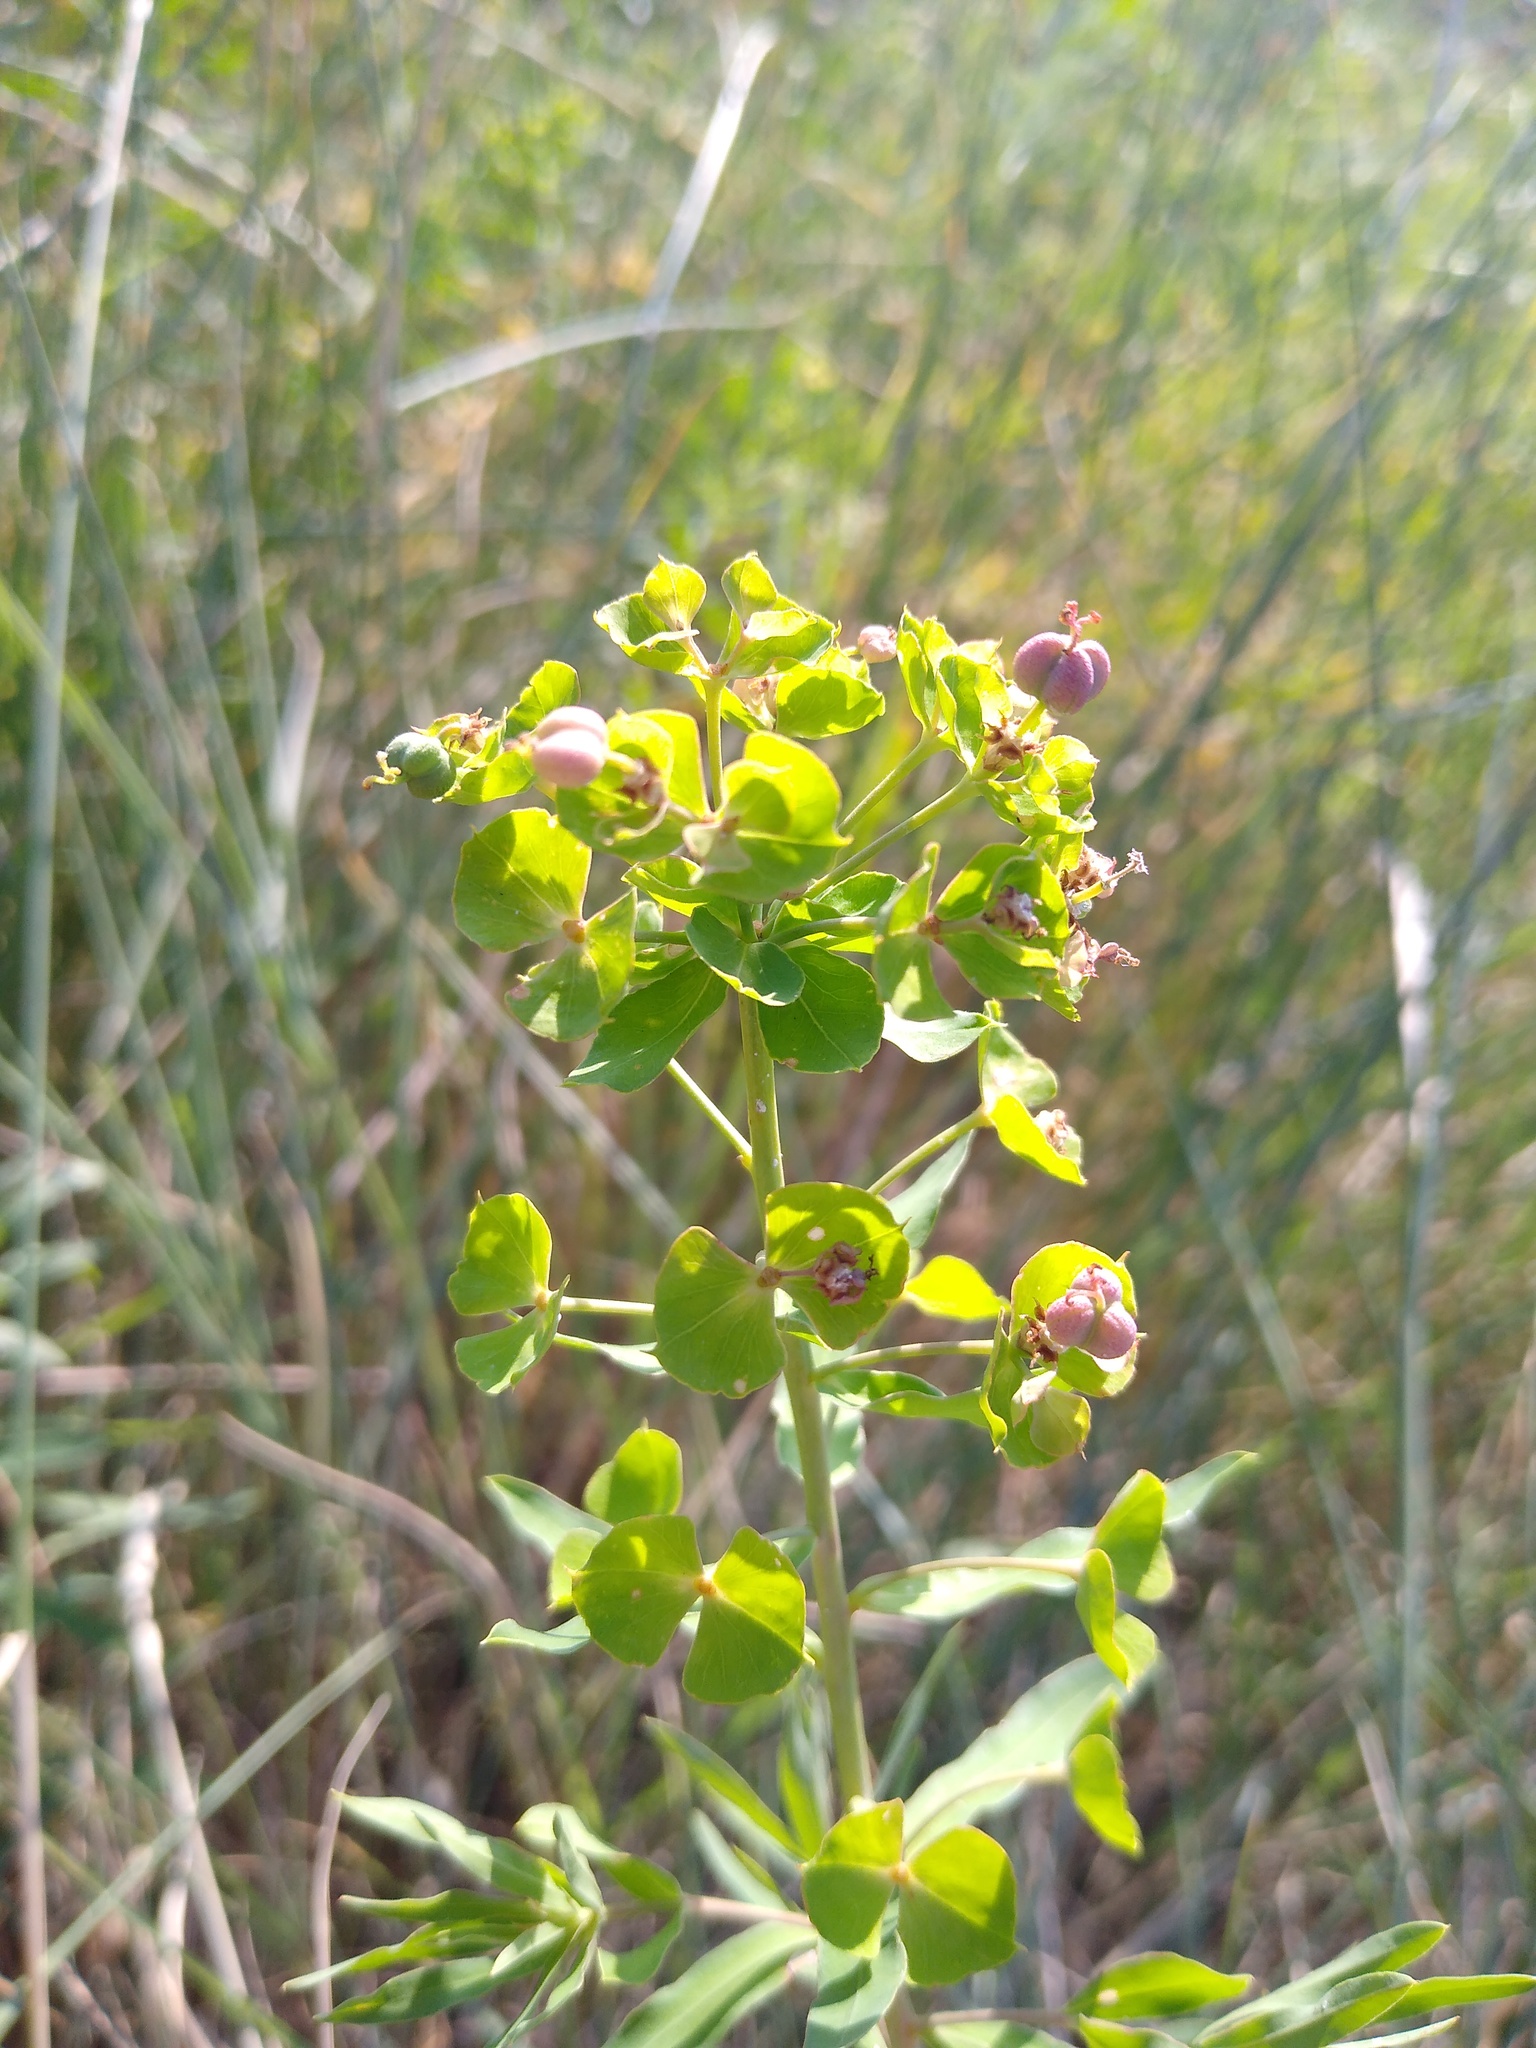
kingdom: Plantae
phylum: Tracheophyta
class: Magnoliopsida
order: Malpighiales
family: Euphorbiaceae
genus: Euphorbia
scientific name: Euphorbia virgata
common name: Leafy spurge
